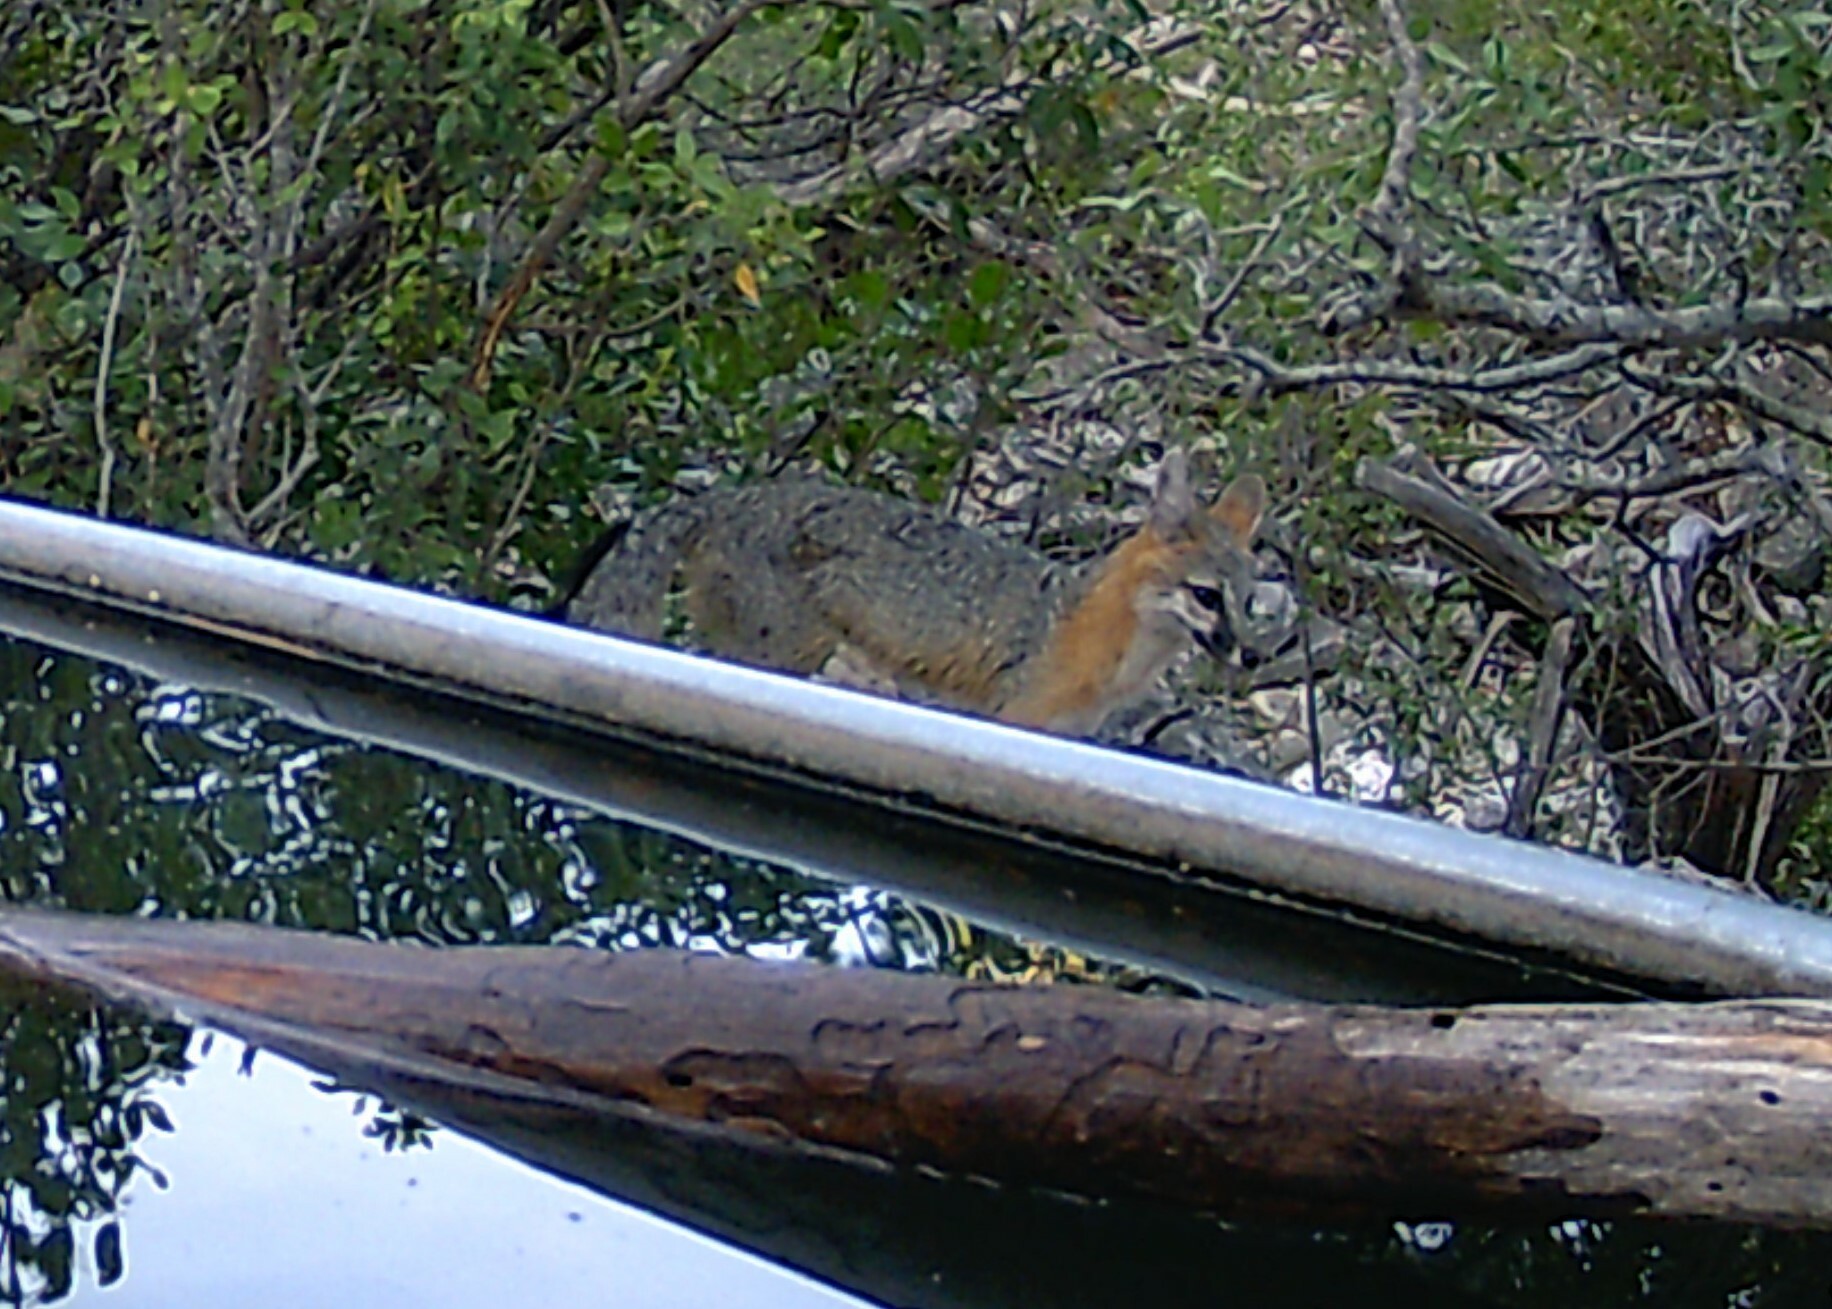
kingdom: Animalia
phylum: Chordata
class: Mammalia
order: Carnivora
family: Canidae
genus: Urocyon
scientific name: Urocyon cinereoargenteus
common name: Gray fox
